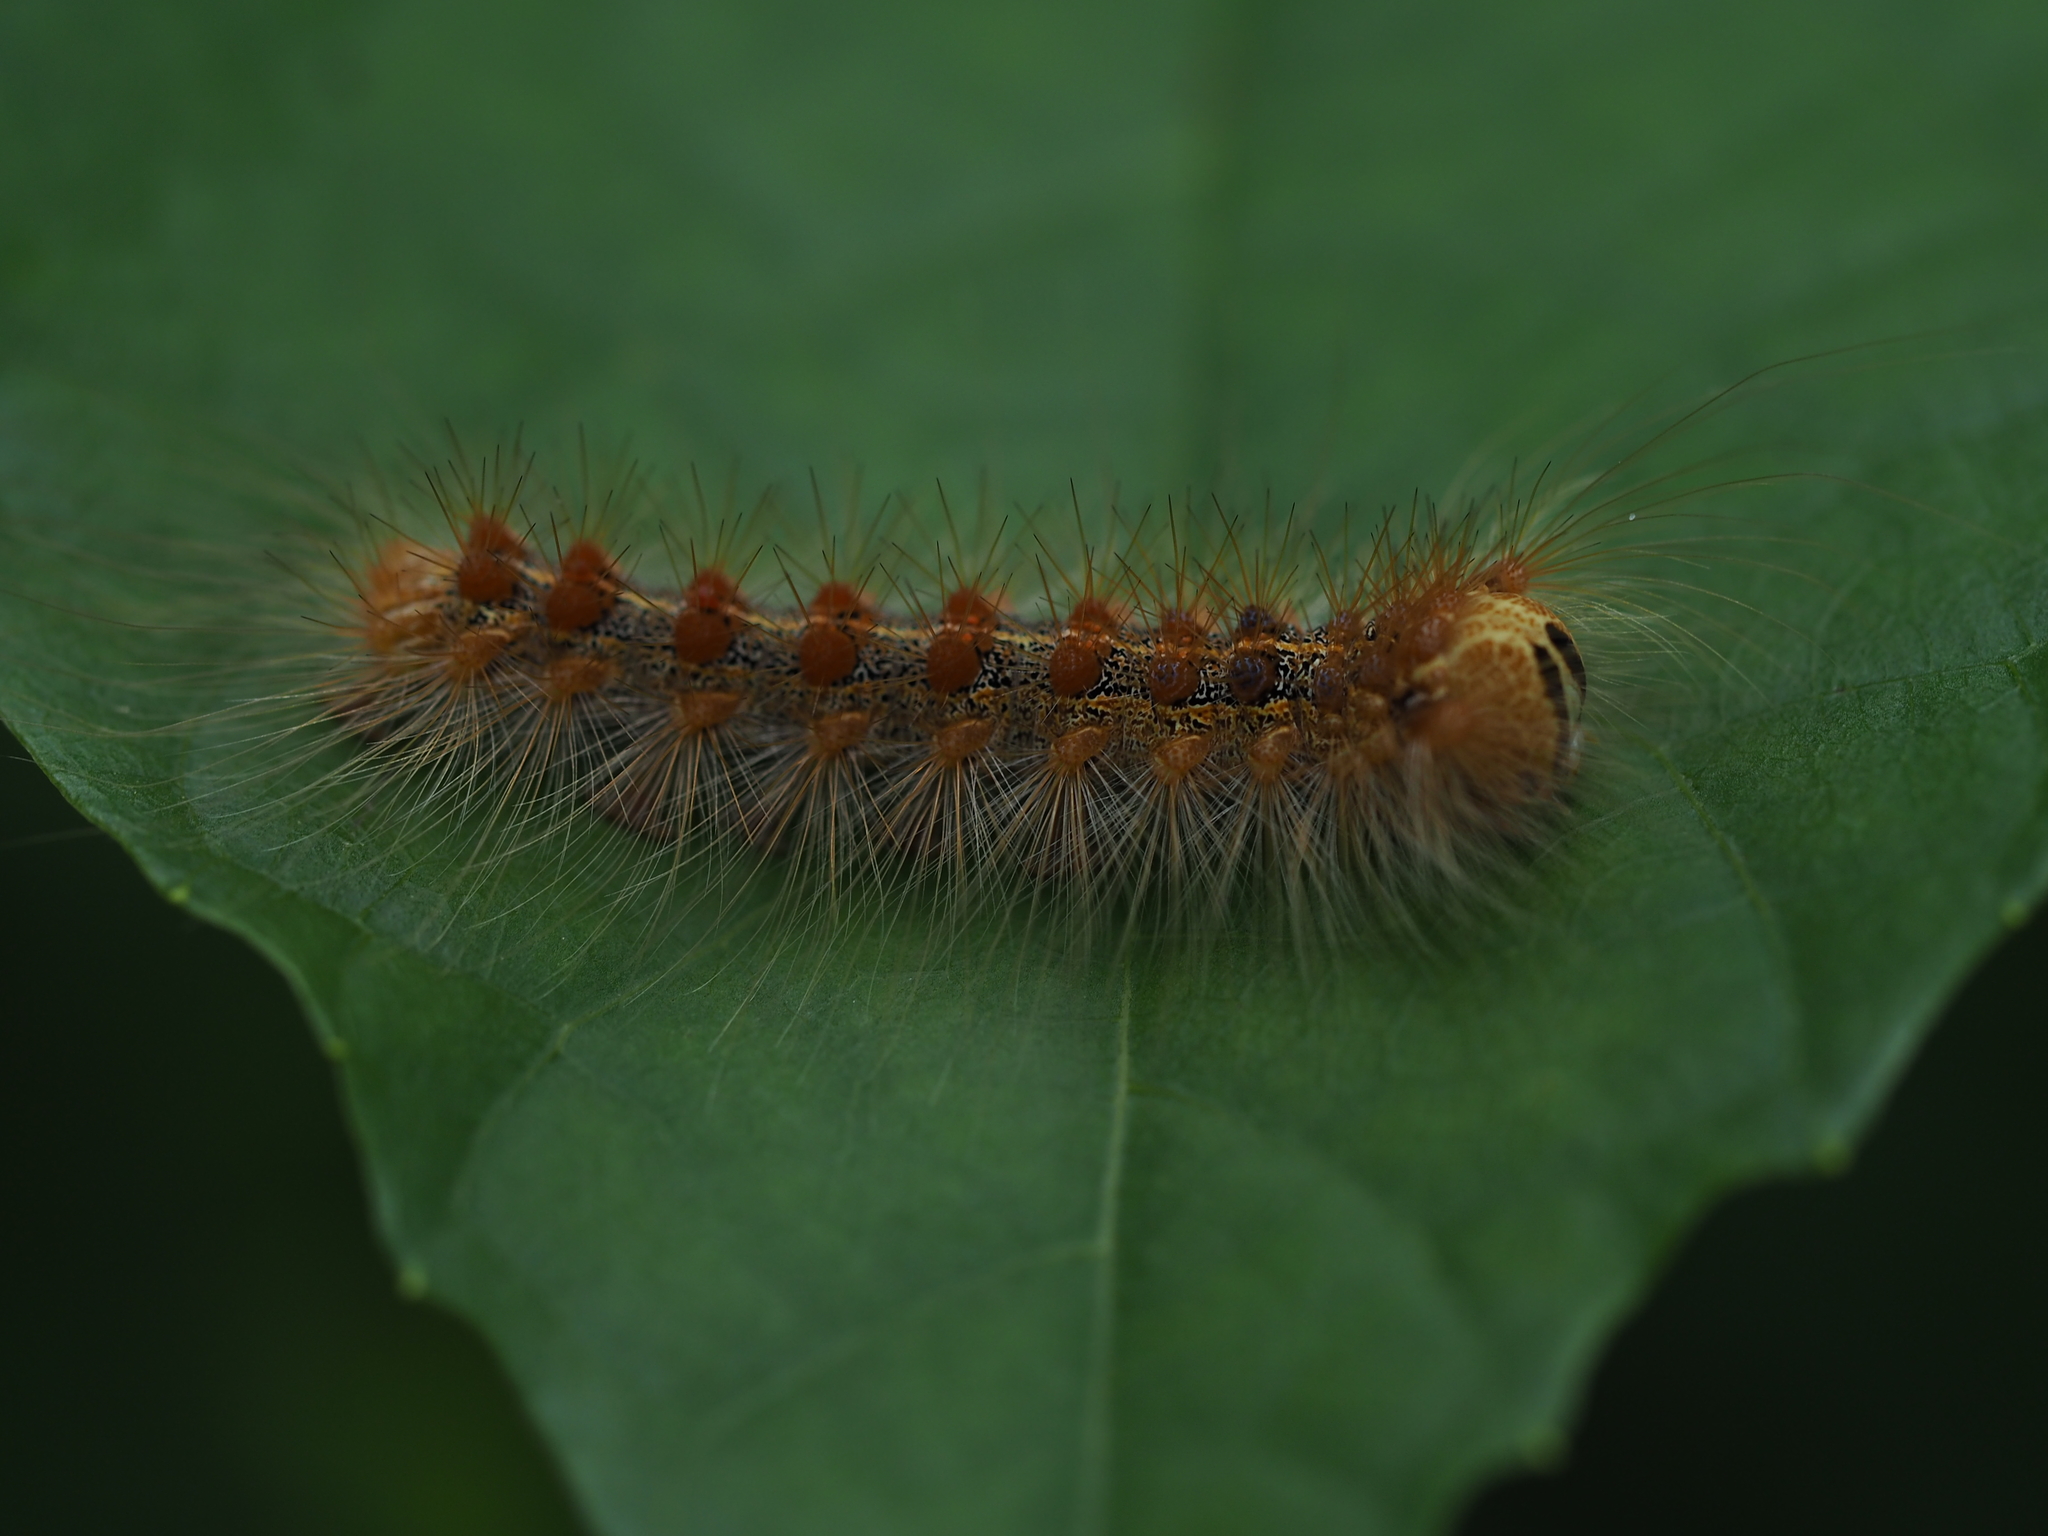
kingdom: Animalia
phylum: Arthropoda
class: Insecta
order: Lepidoptera
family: Erebidae
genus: Lymantria
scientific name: Lymantria dispar
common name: Gypsy moth
